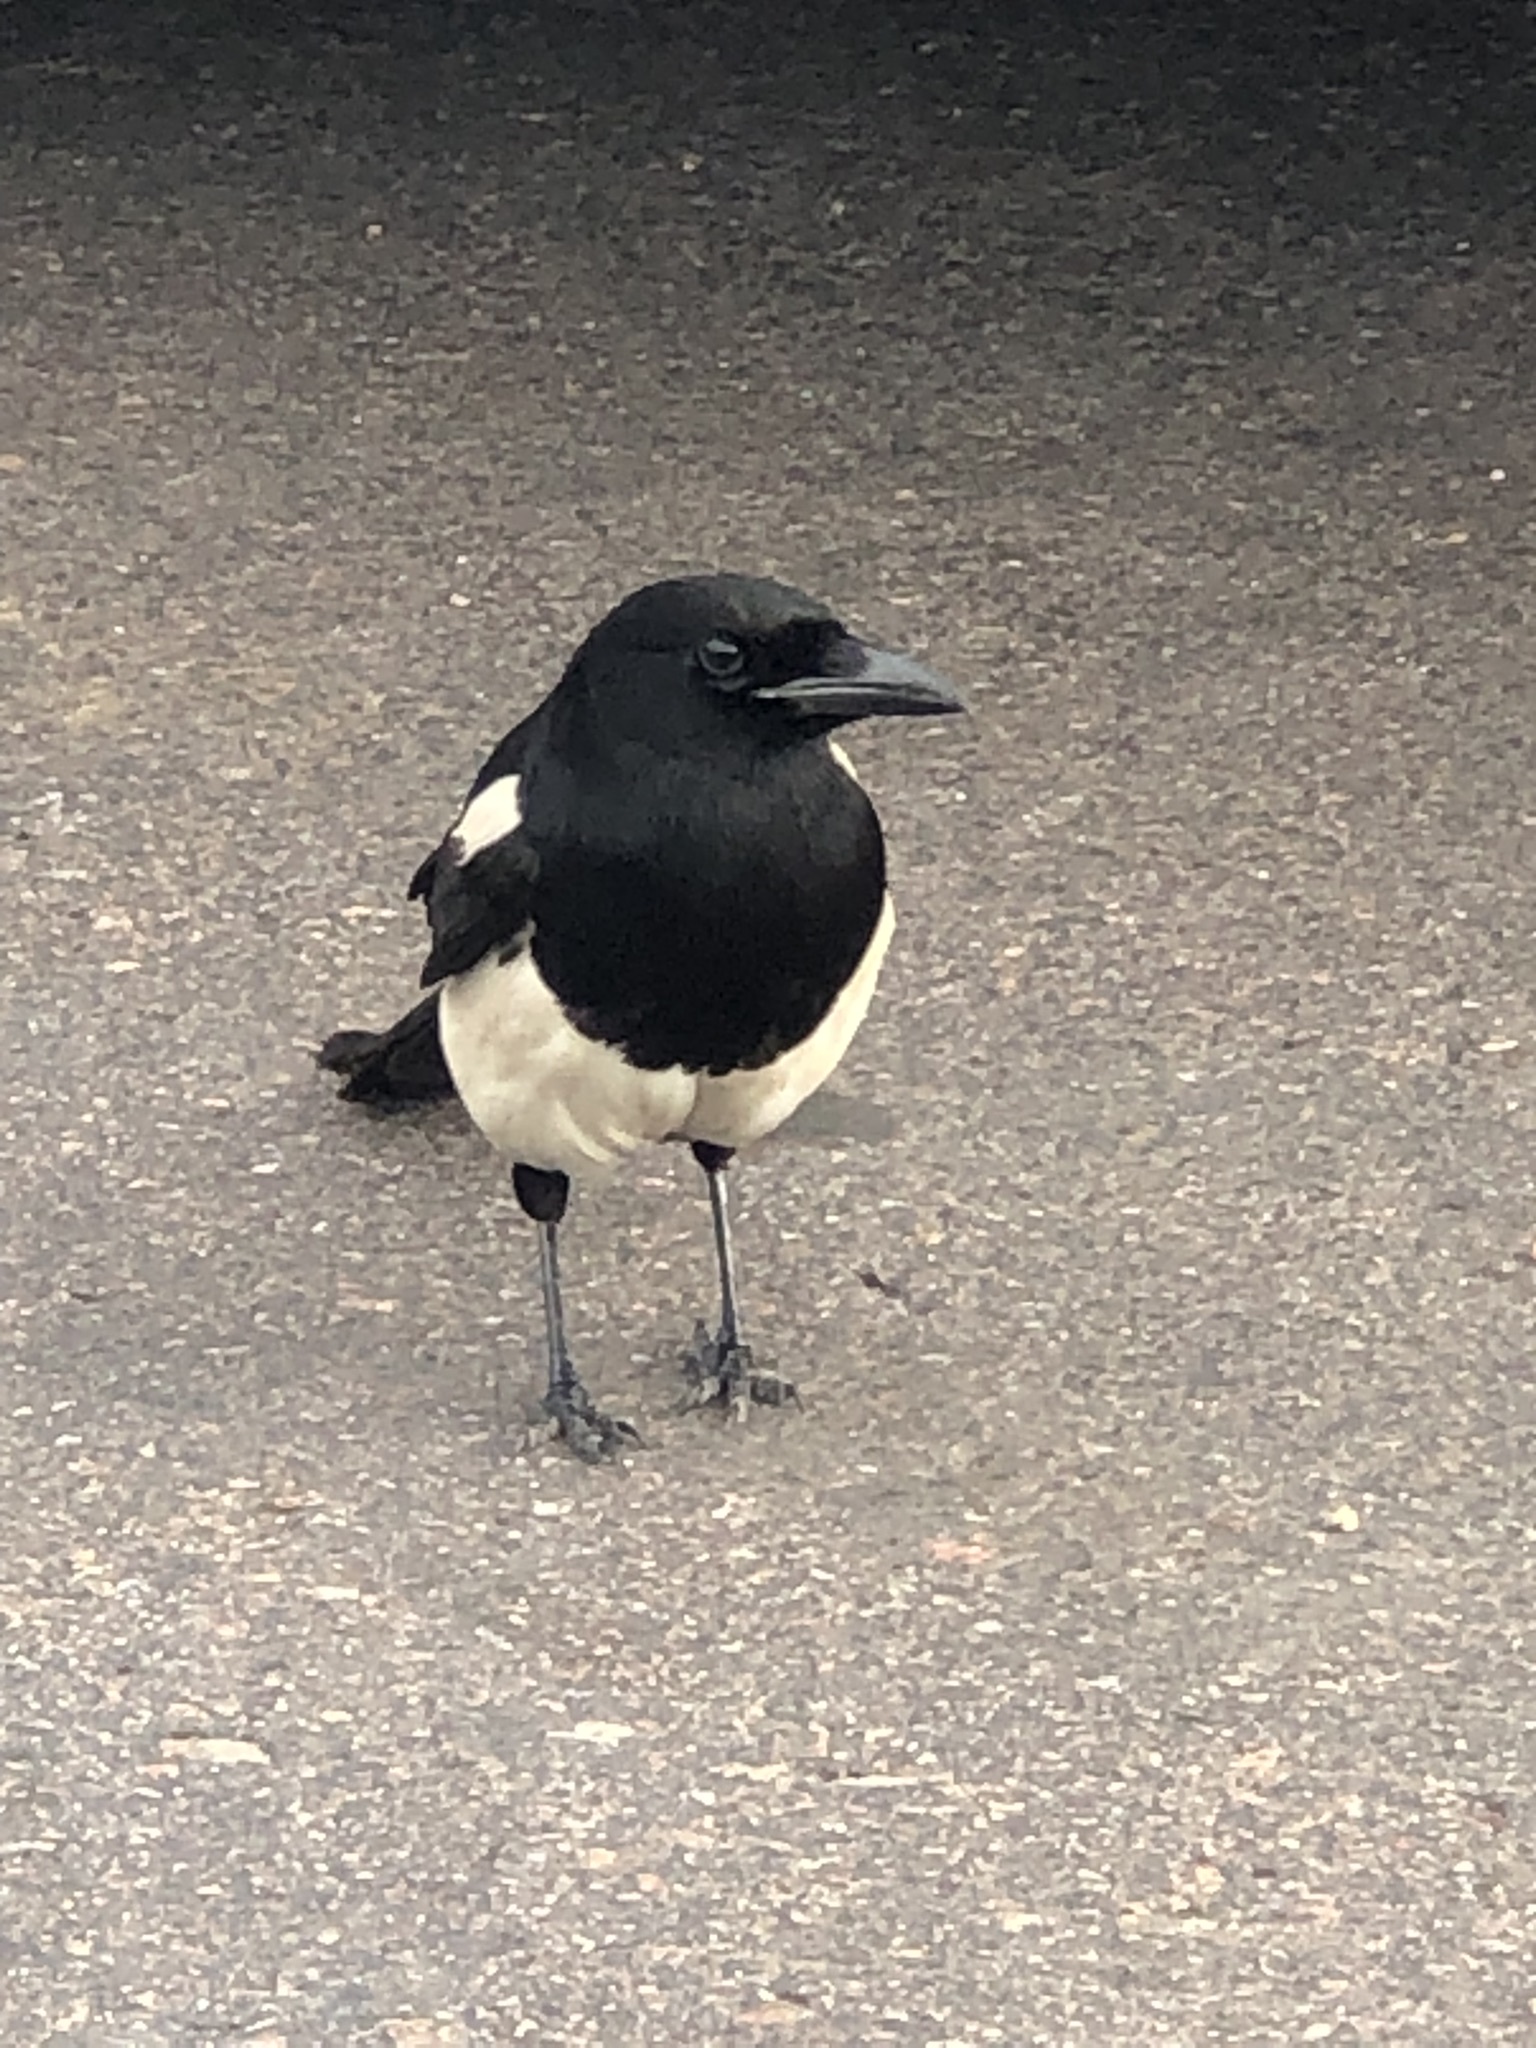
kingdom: Animalia
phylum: Chordata
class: Aves
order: Passeriformes
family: Corvidae
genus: Pica
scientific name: Pica hudsonia
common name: Black-billed magpie
